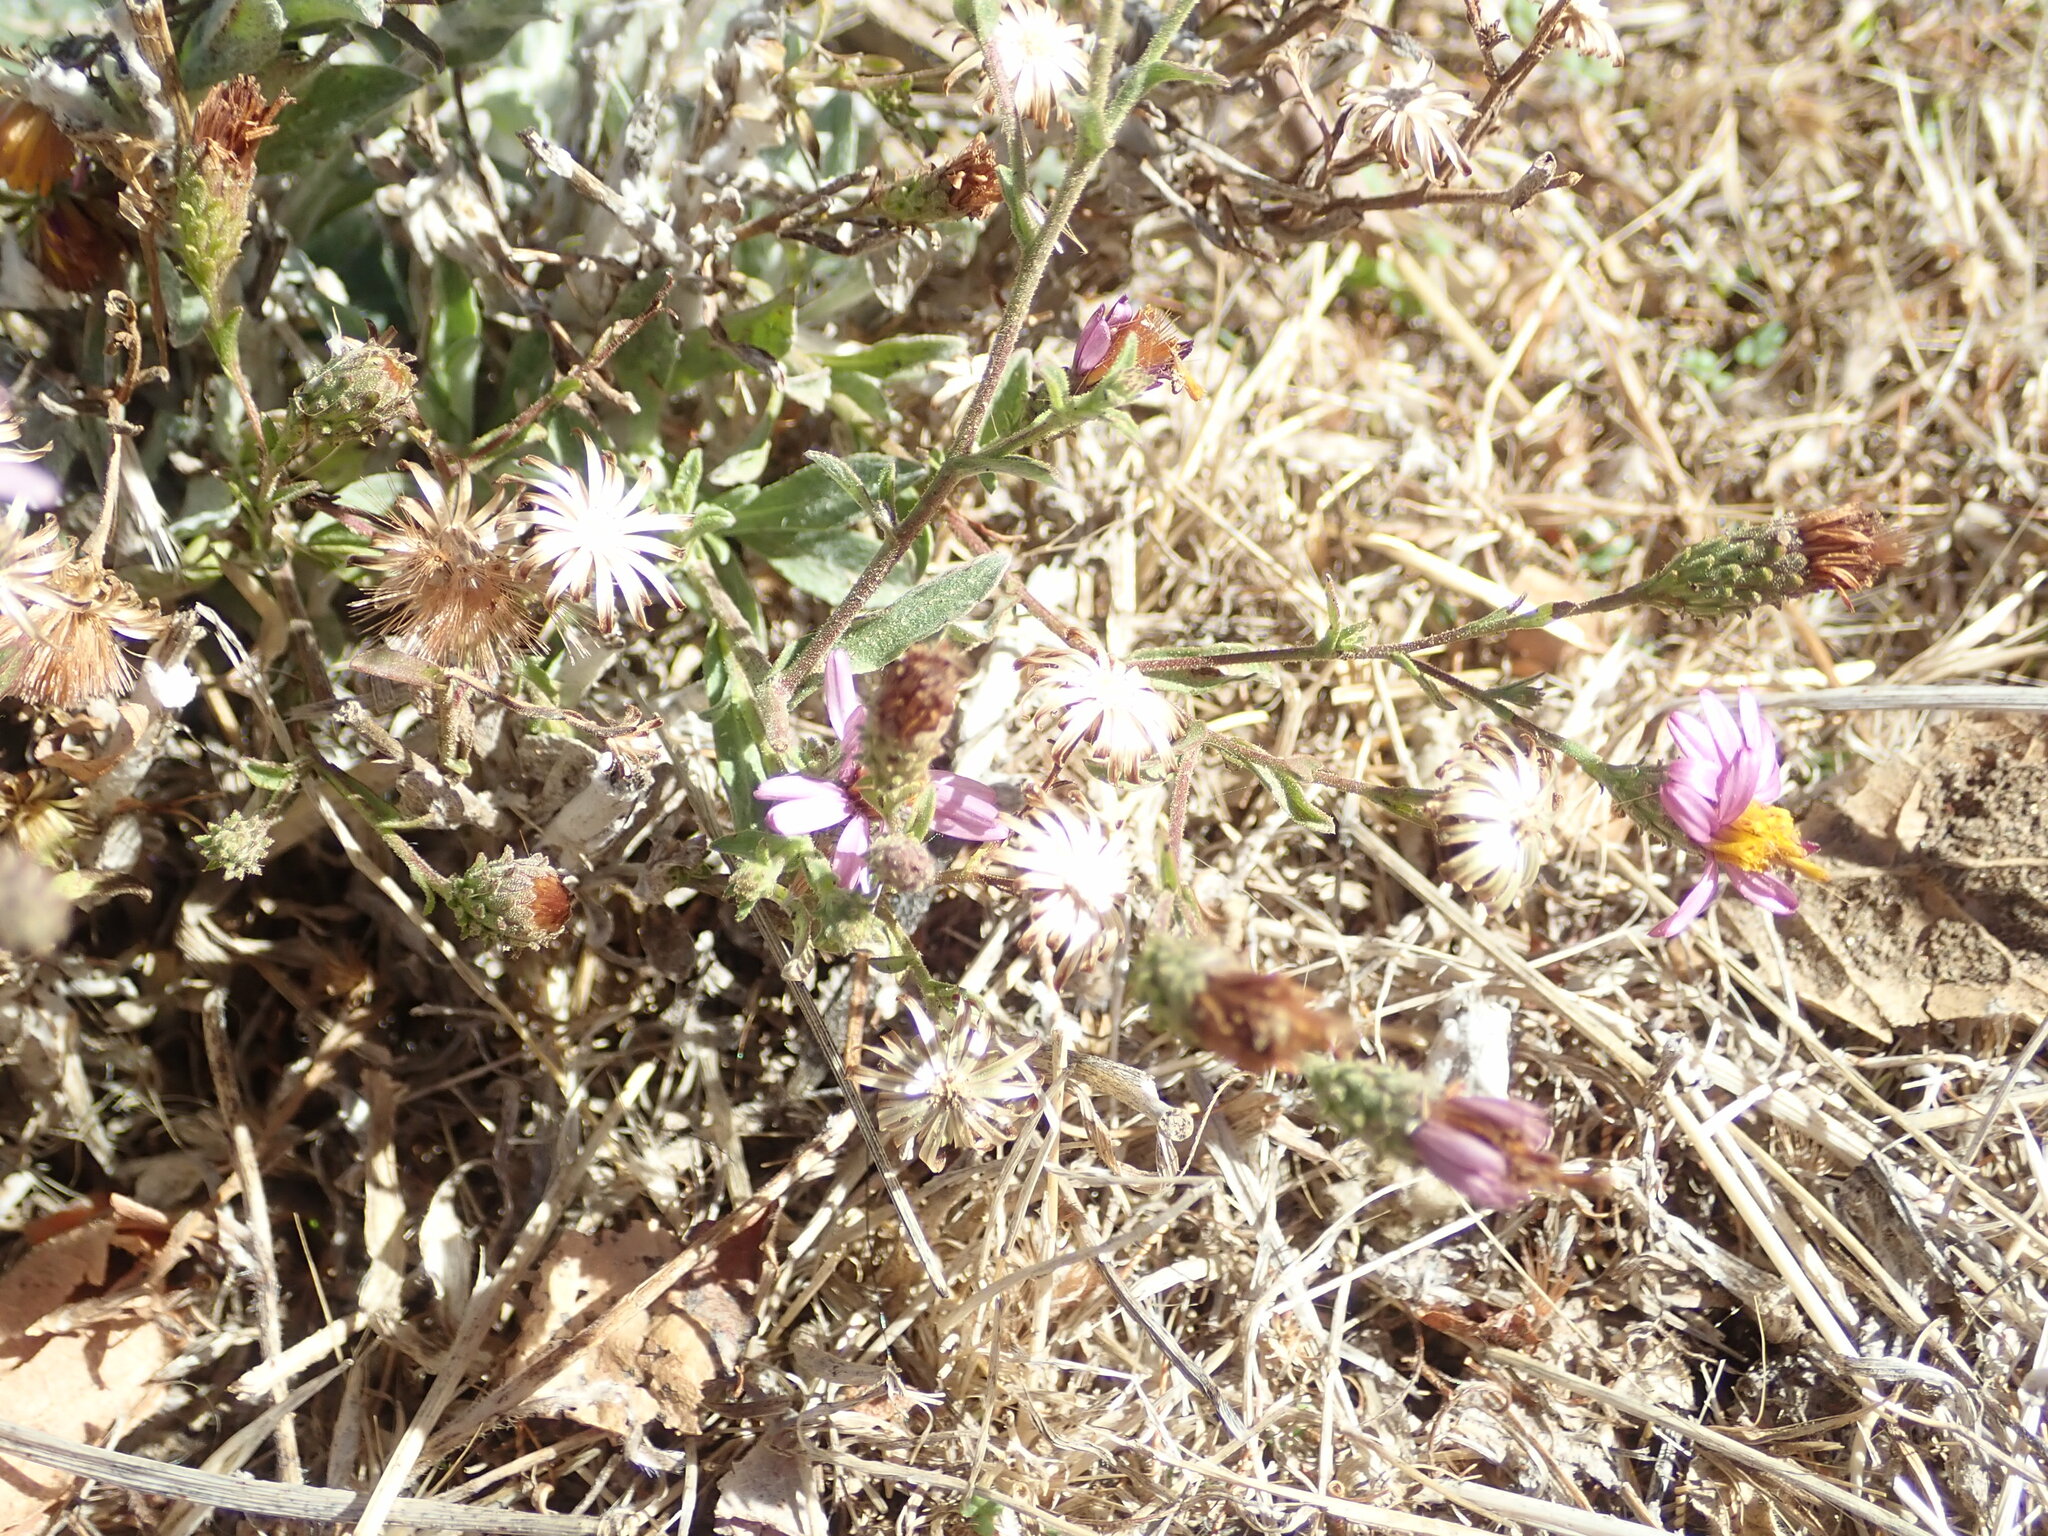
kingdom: Plantae
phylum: Tracheophyta
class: Magnoliopsida
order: Asterales
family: Asteraceae
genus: Corethrogyne
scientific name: Corethrogyne filaginifolia
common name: Sand-aster
